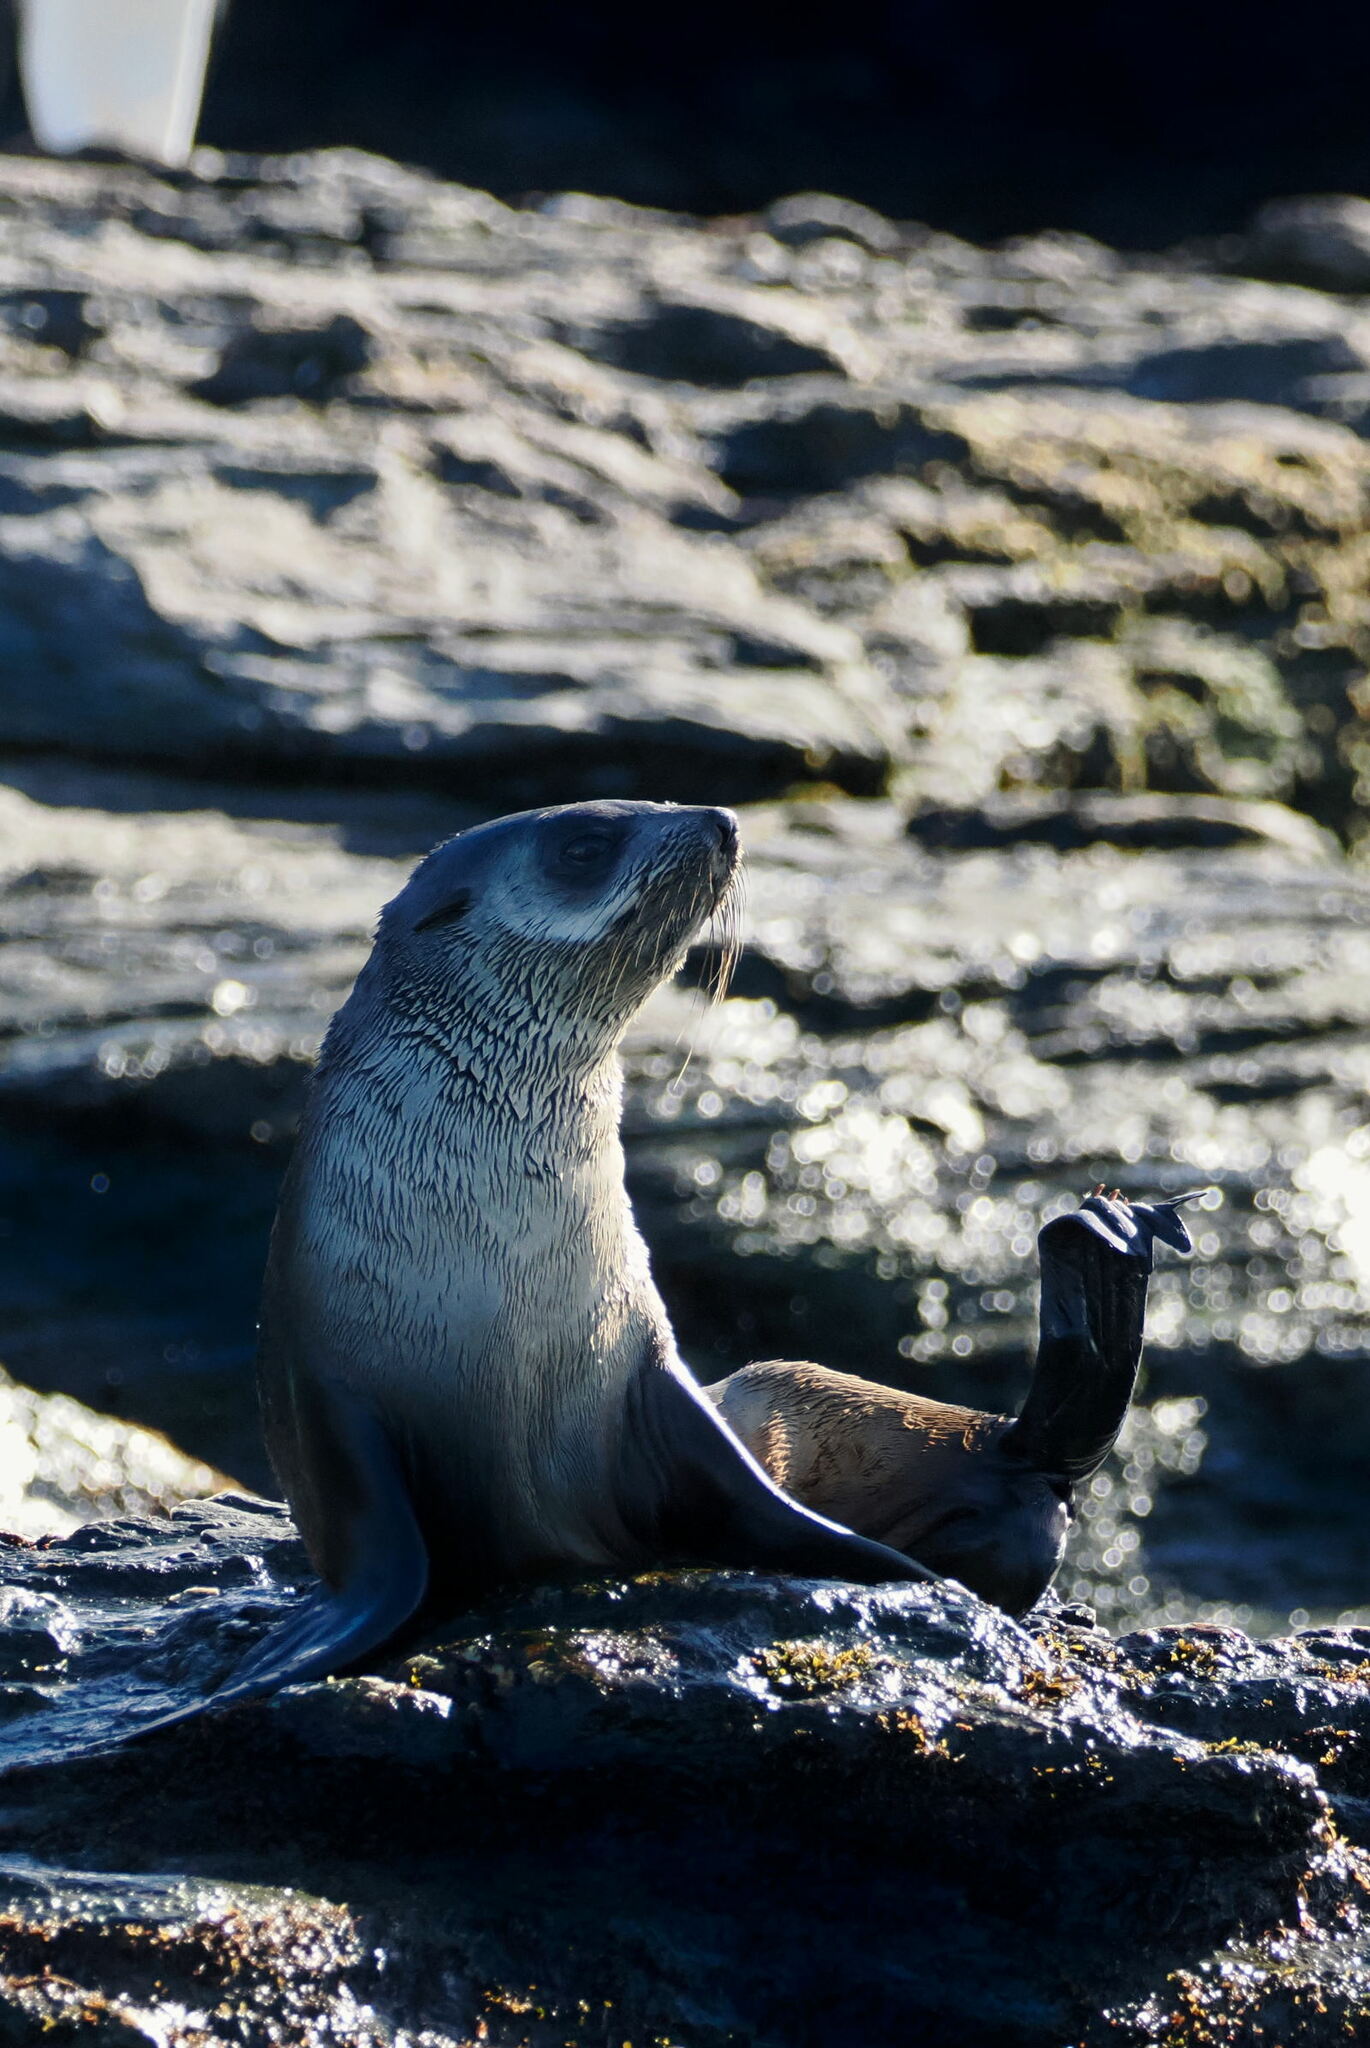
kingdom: Animalia
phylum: Chordata
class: Mammalia
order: Carnivora
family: Otariidae
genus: Arctocephalus
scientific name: Arctocephalus gazella
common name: Antarctic fur seal
